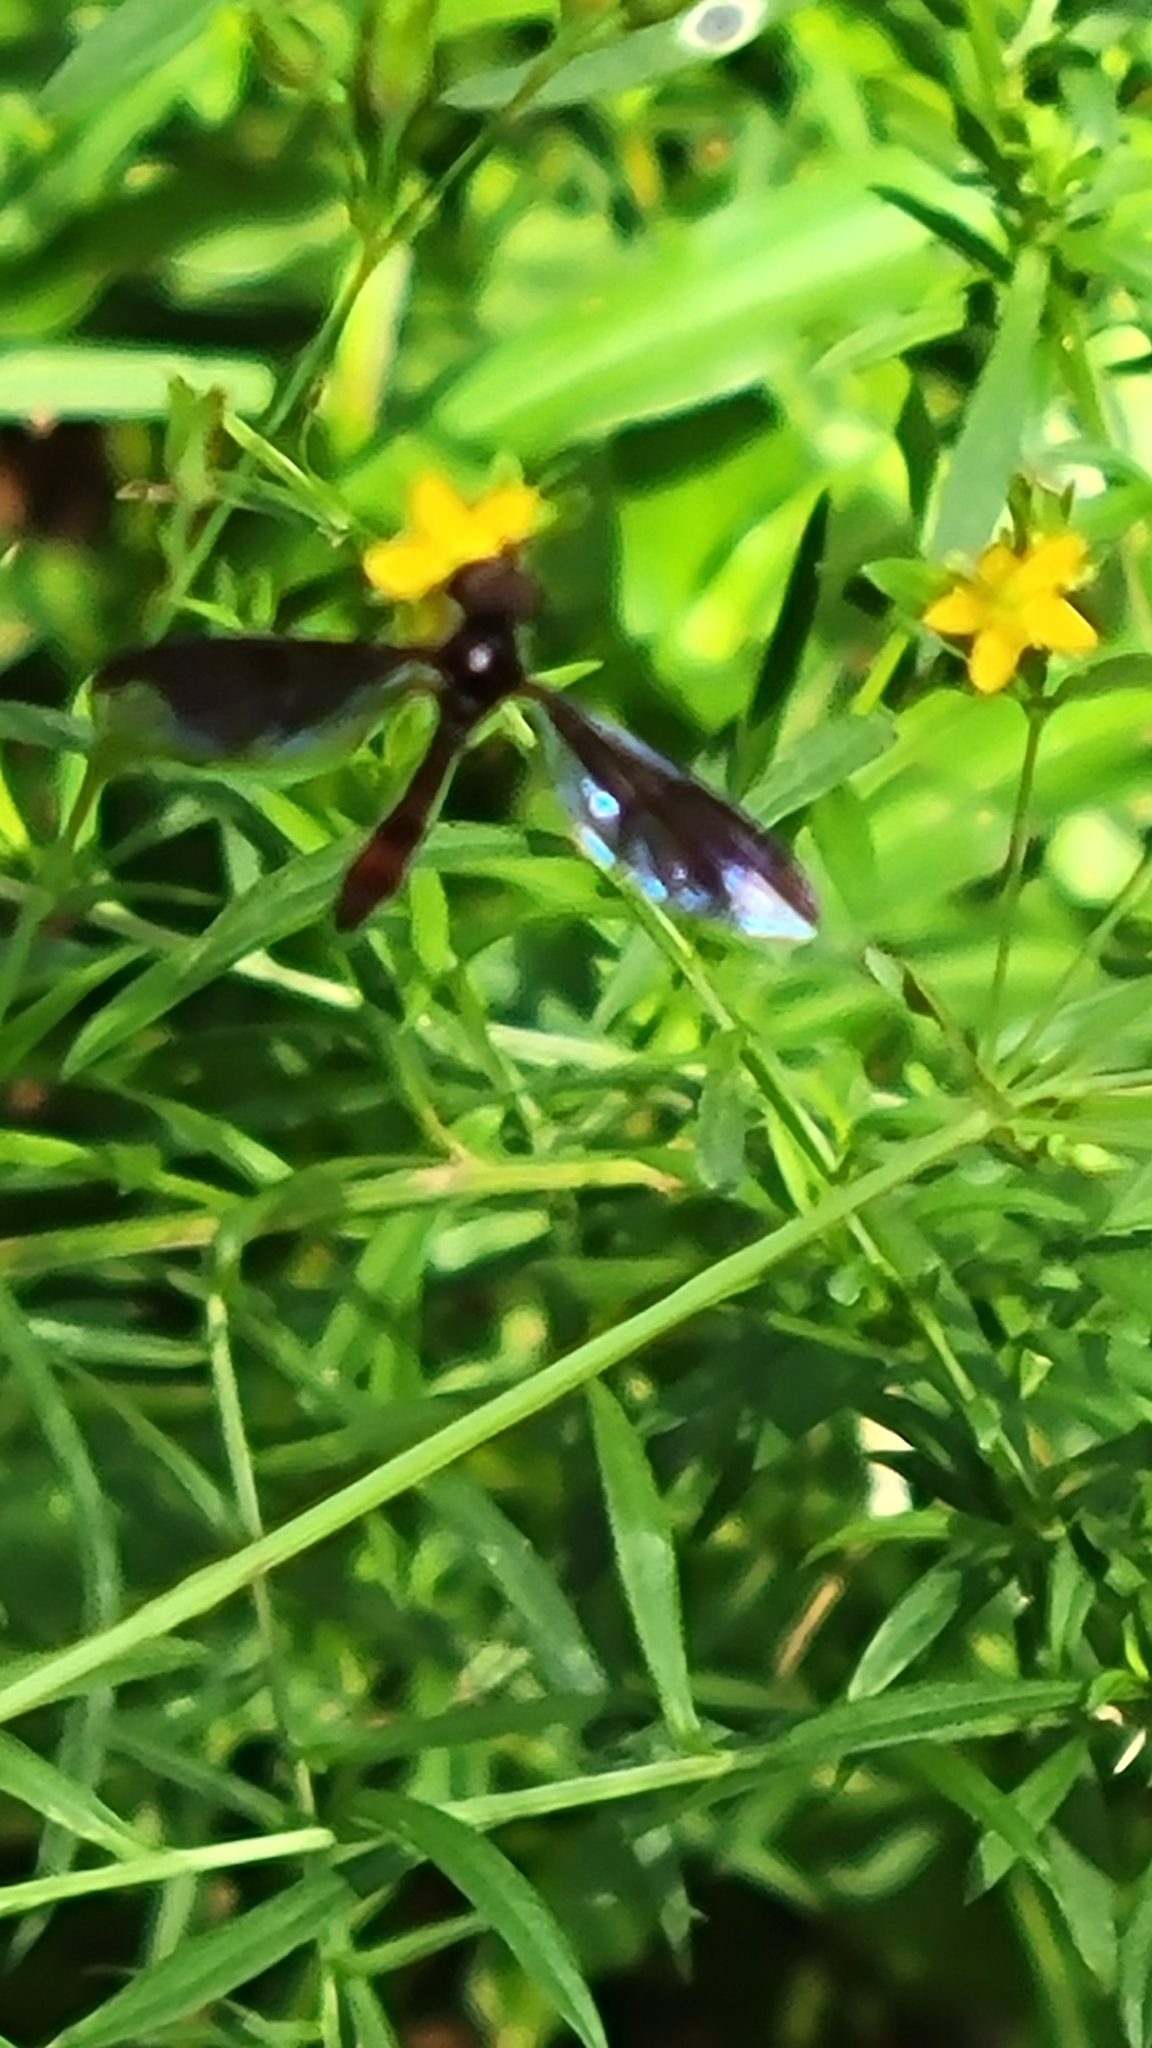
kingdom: Animalia
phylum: Arthropoda
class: Insecta
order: Diptera
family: Syrphidae
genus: Ocyptamus
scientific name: Ocyptamus fuscipennis
